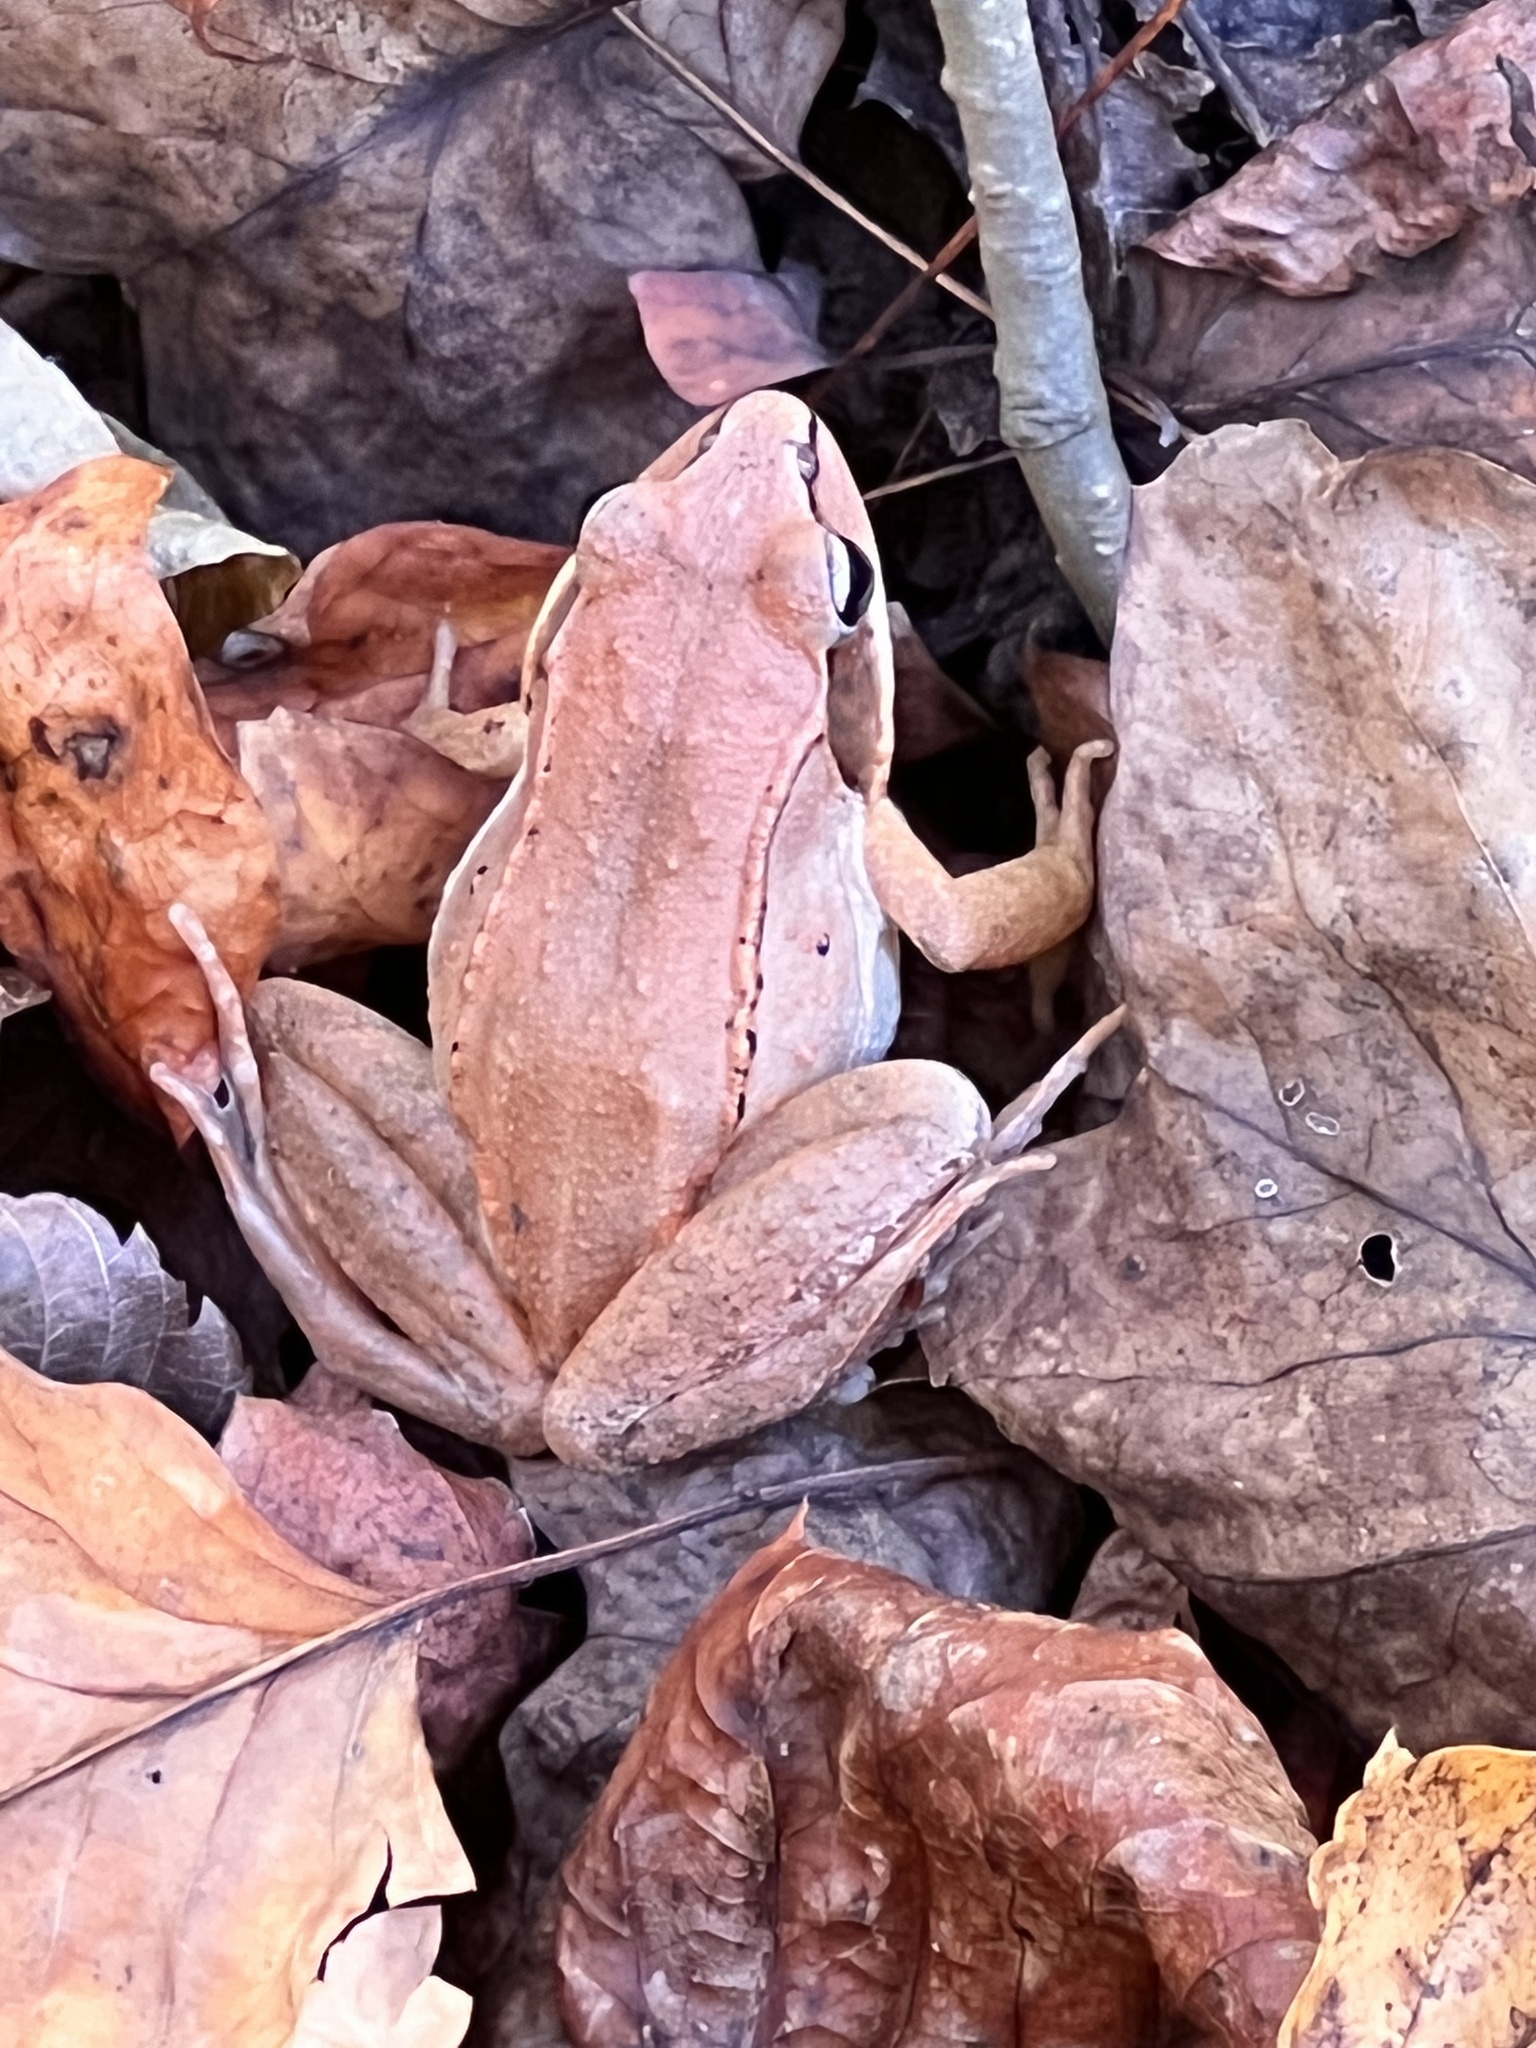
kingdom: Animalia
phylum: Chordata
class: Amphibia
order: Anura
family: Ranidae
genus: Lithobates
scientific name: Lithobates sylvaticus
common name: Wood frog
